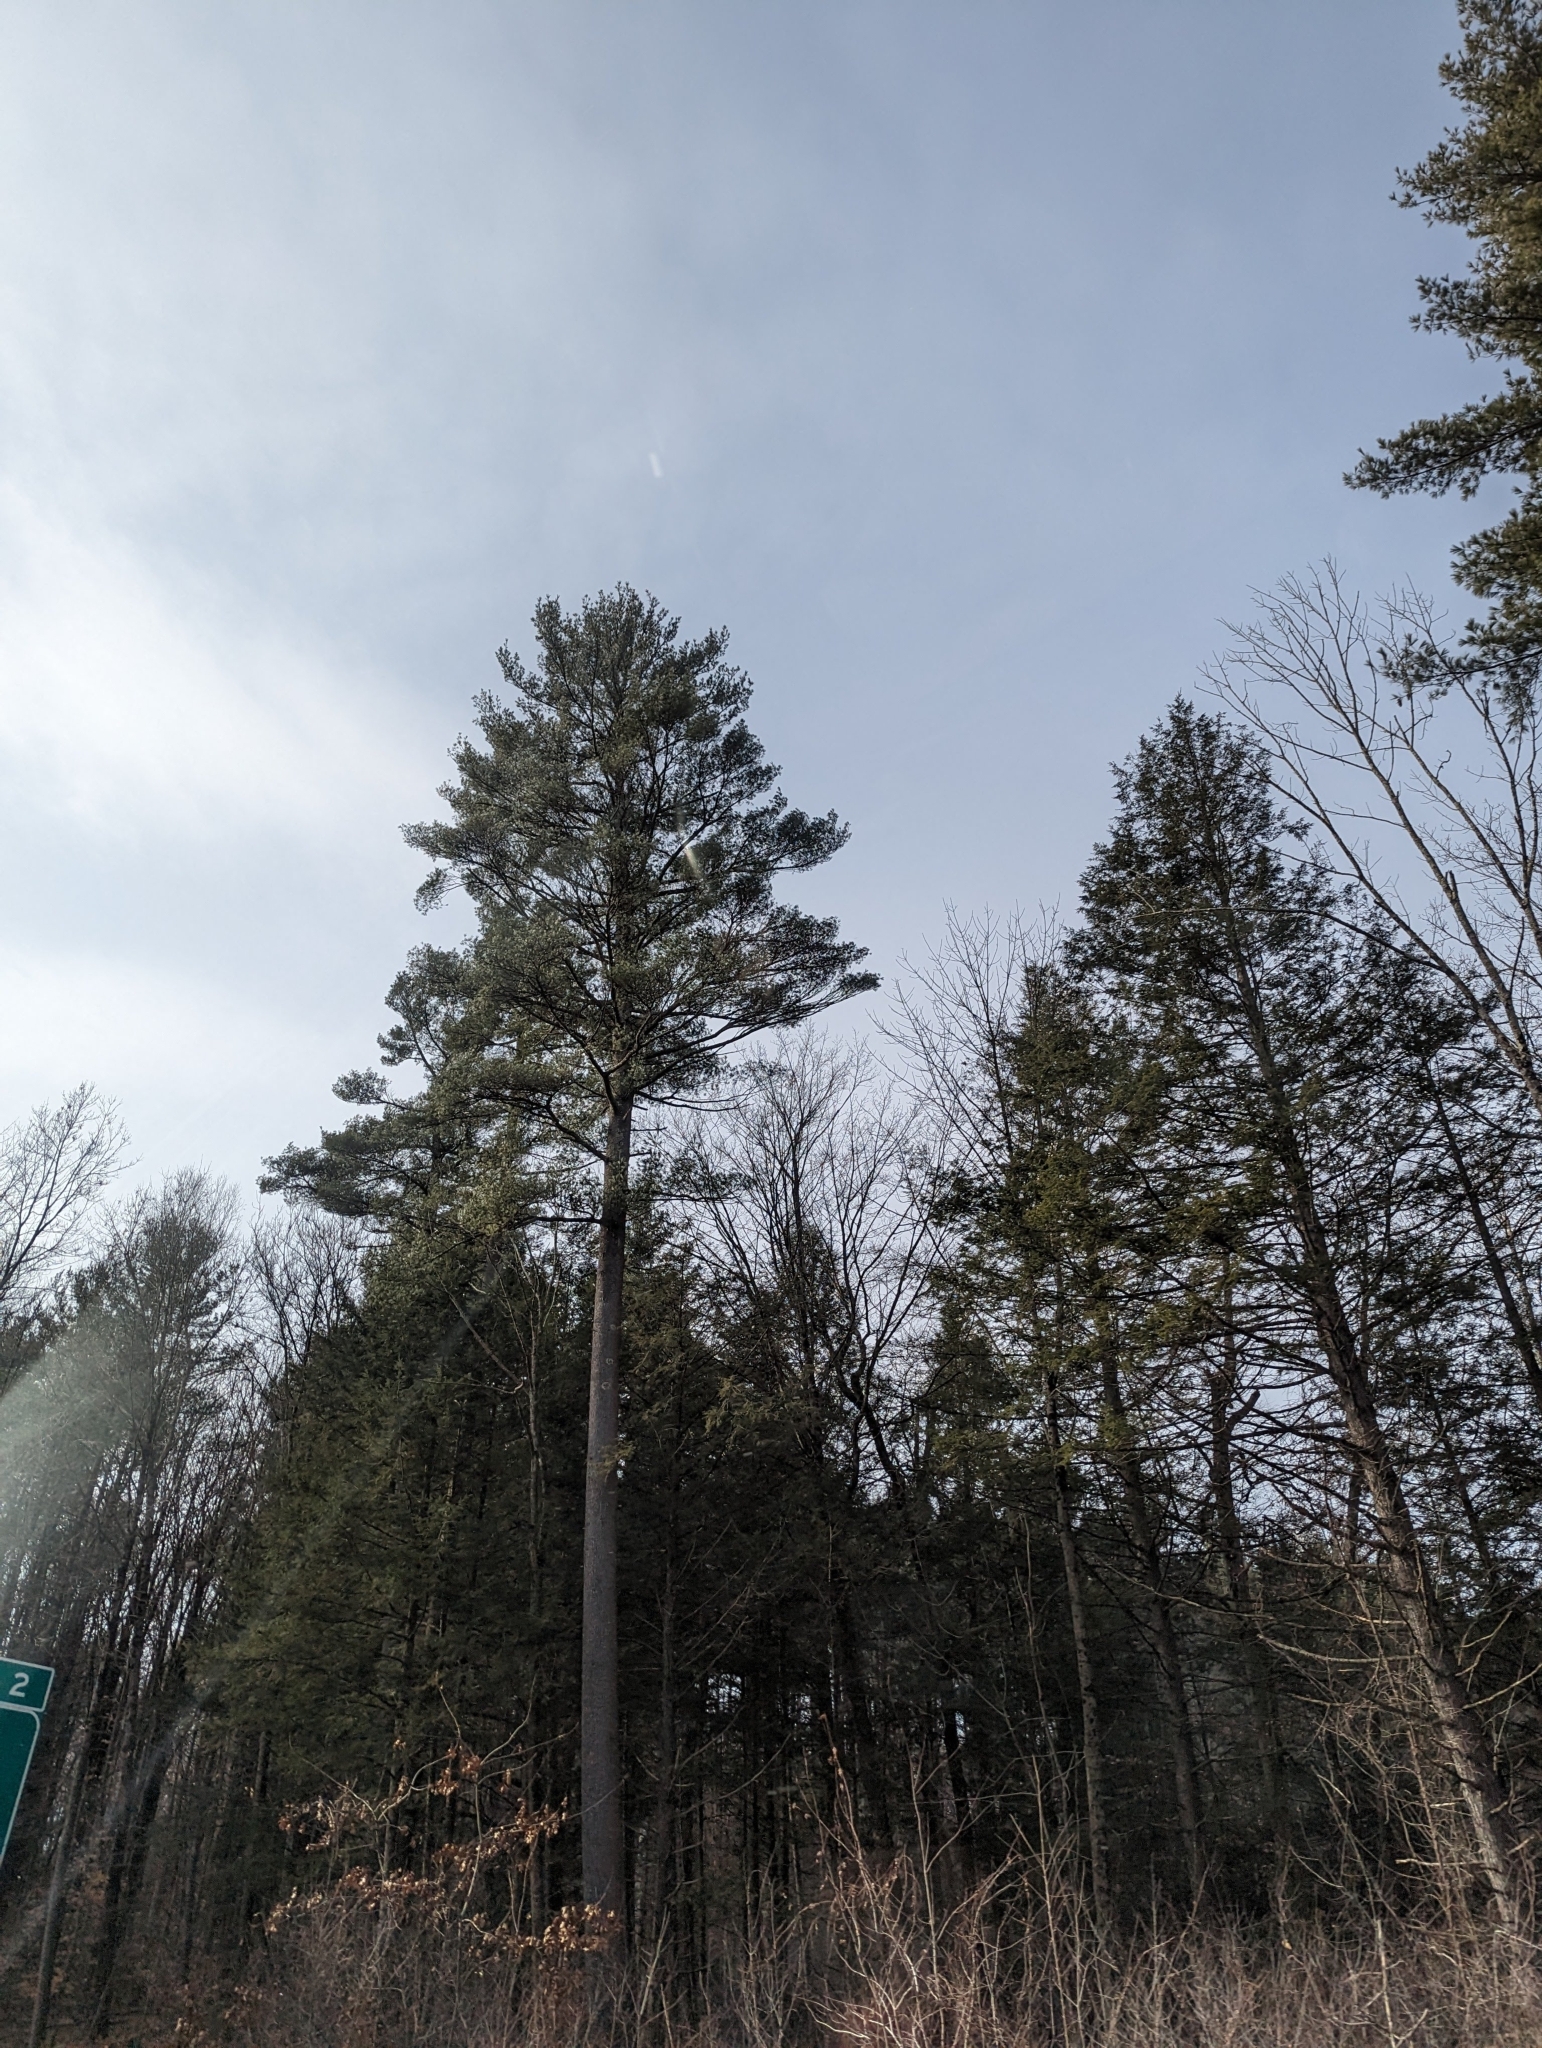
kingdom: Plantae
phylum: Tracheophyta
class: Pinopsida
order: Pinales
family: Pinaceae
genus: Pinus
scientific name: Pinus strobus
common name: Weymouth pine
